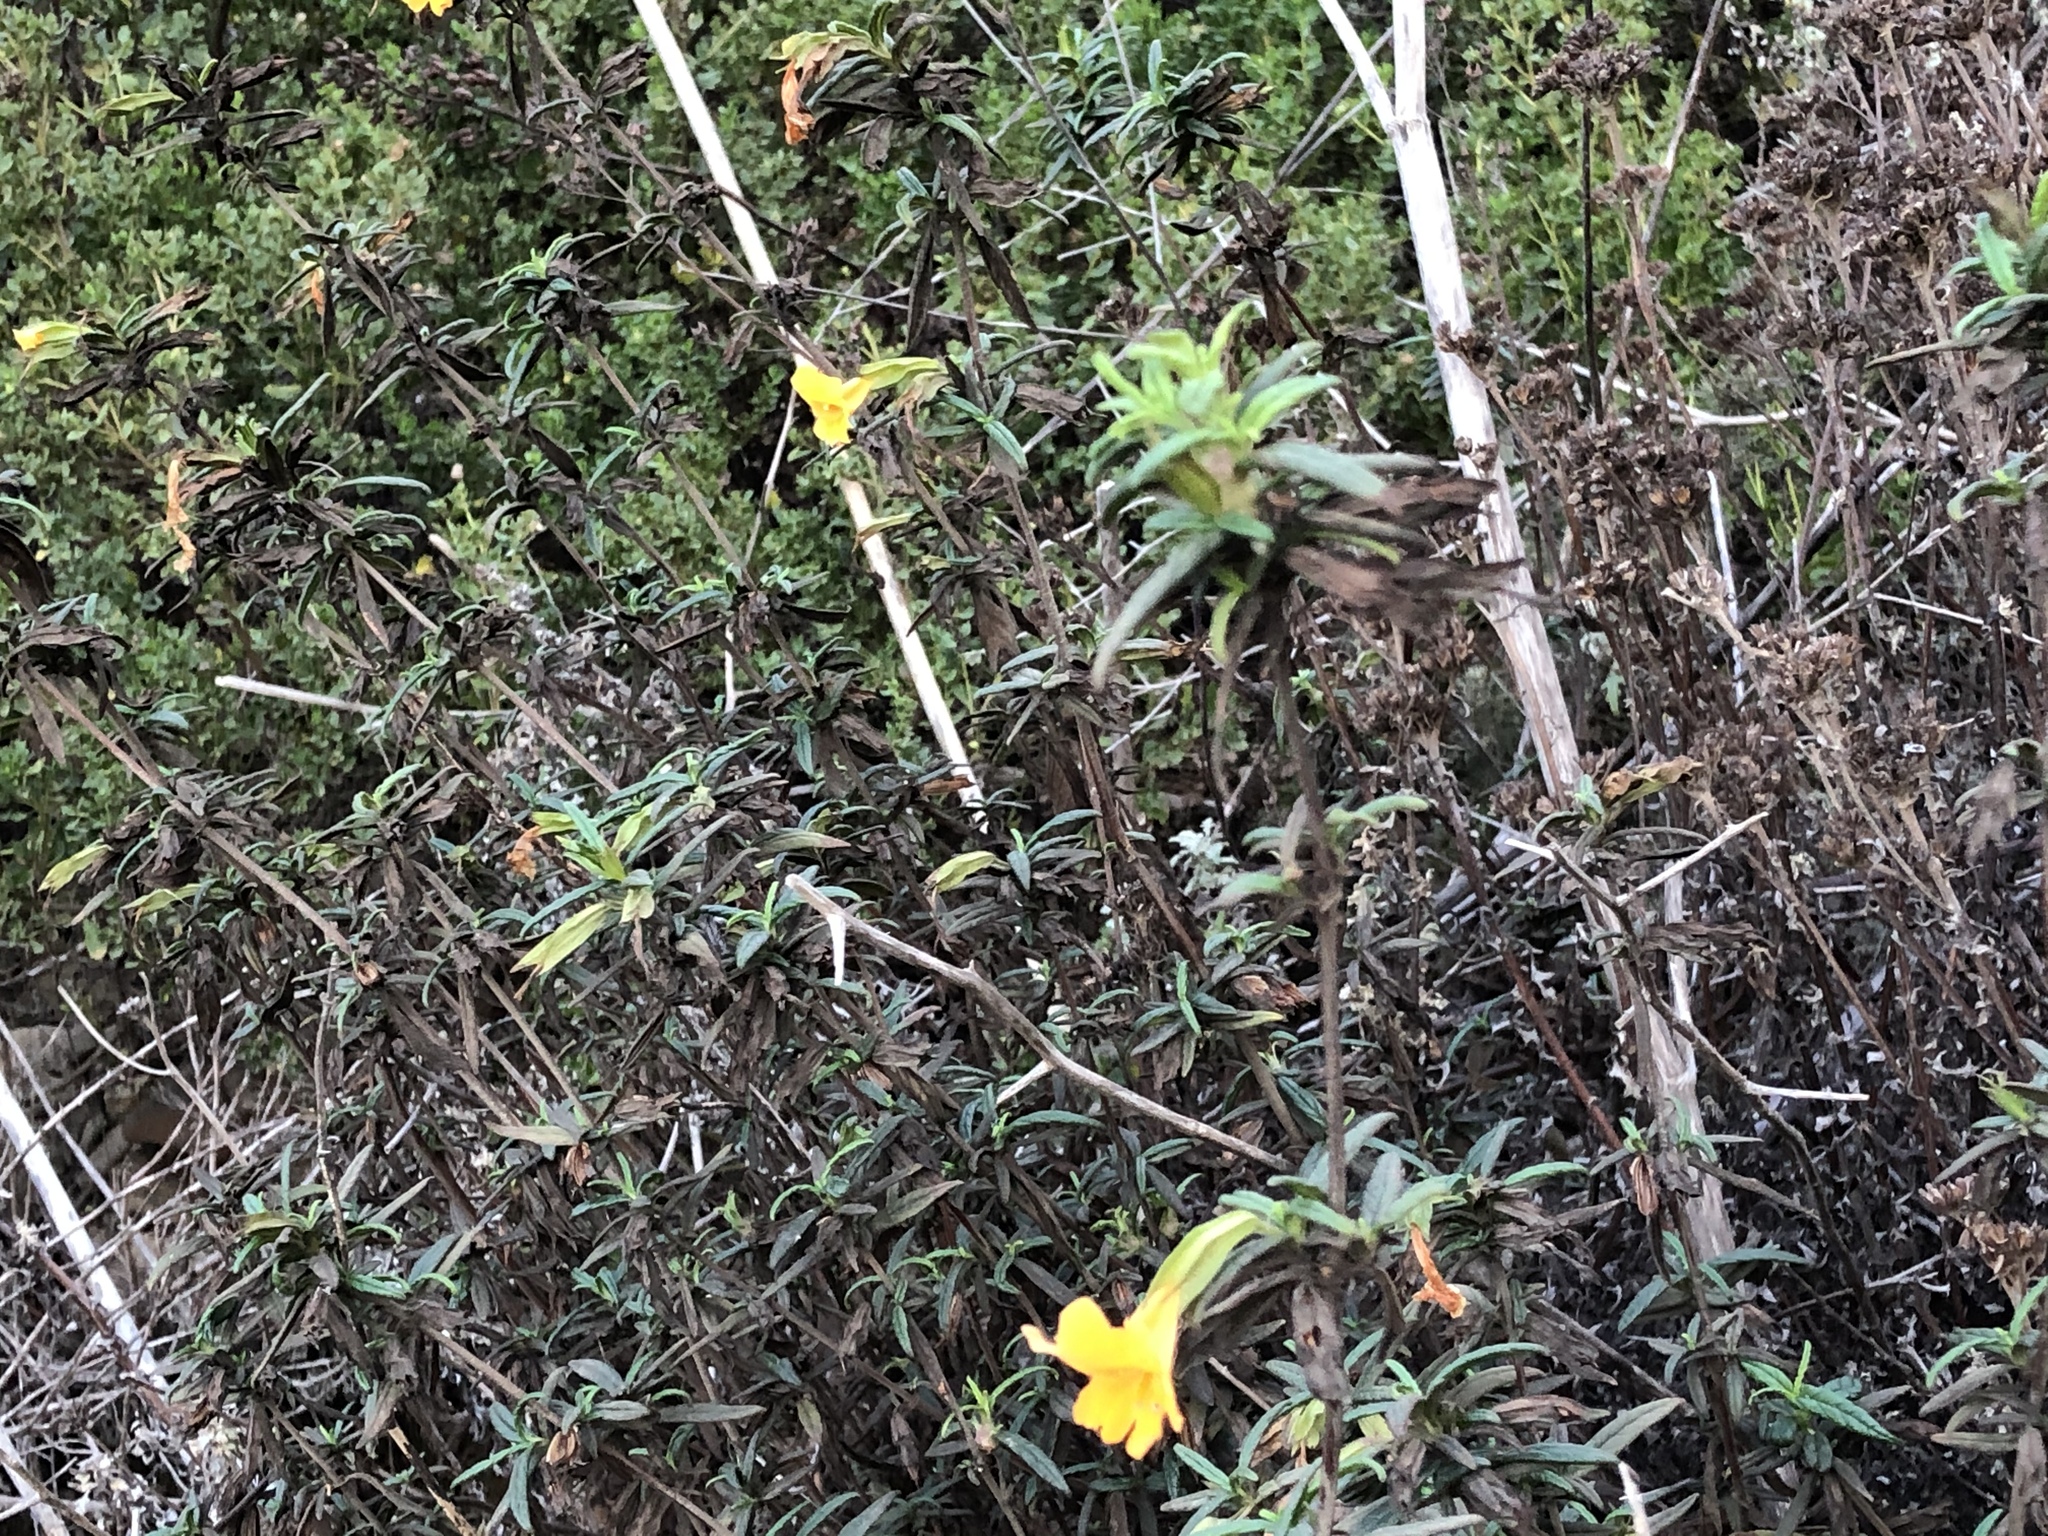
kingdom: Plantae
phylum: Tracheophyta
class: Magnoliopsida
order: Lamiales
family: Phrymaceae
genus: Diplacus
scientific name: Diplacus aurantiacus
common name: Bush monkey-flower
